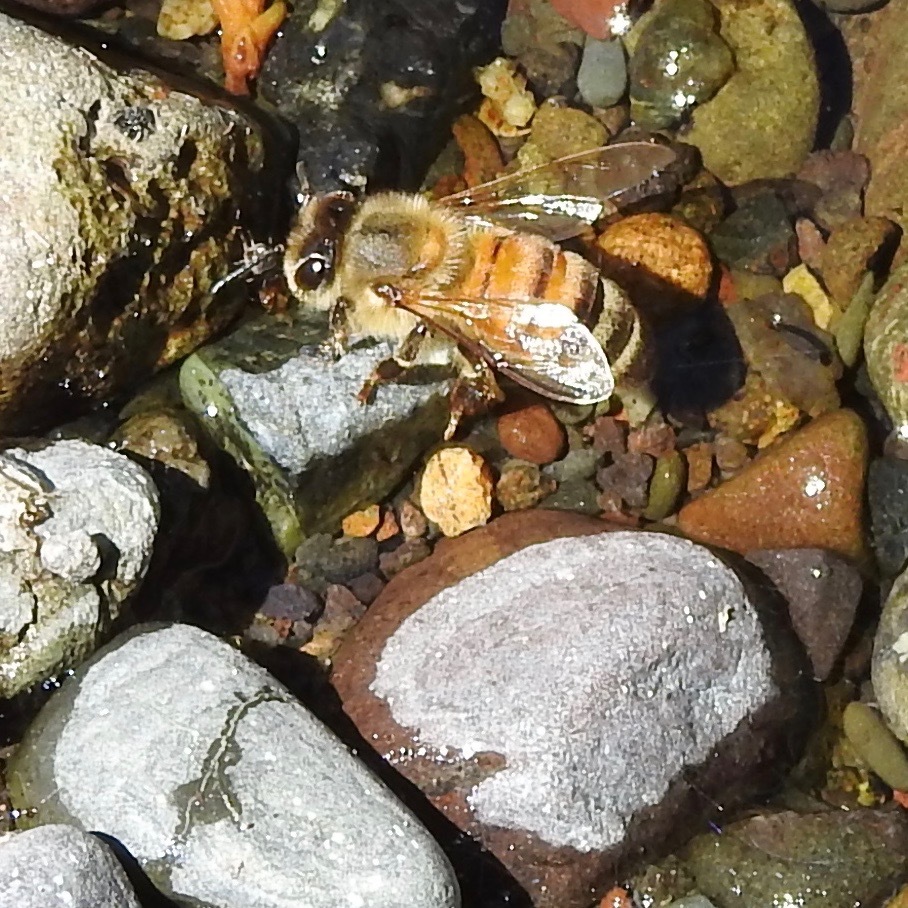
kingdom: Animalia
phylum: Arthropoda
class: Insecta
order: Hymenoptera
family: Apidae
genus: Apis
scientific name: Apis mellifera
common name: Honey bee
